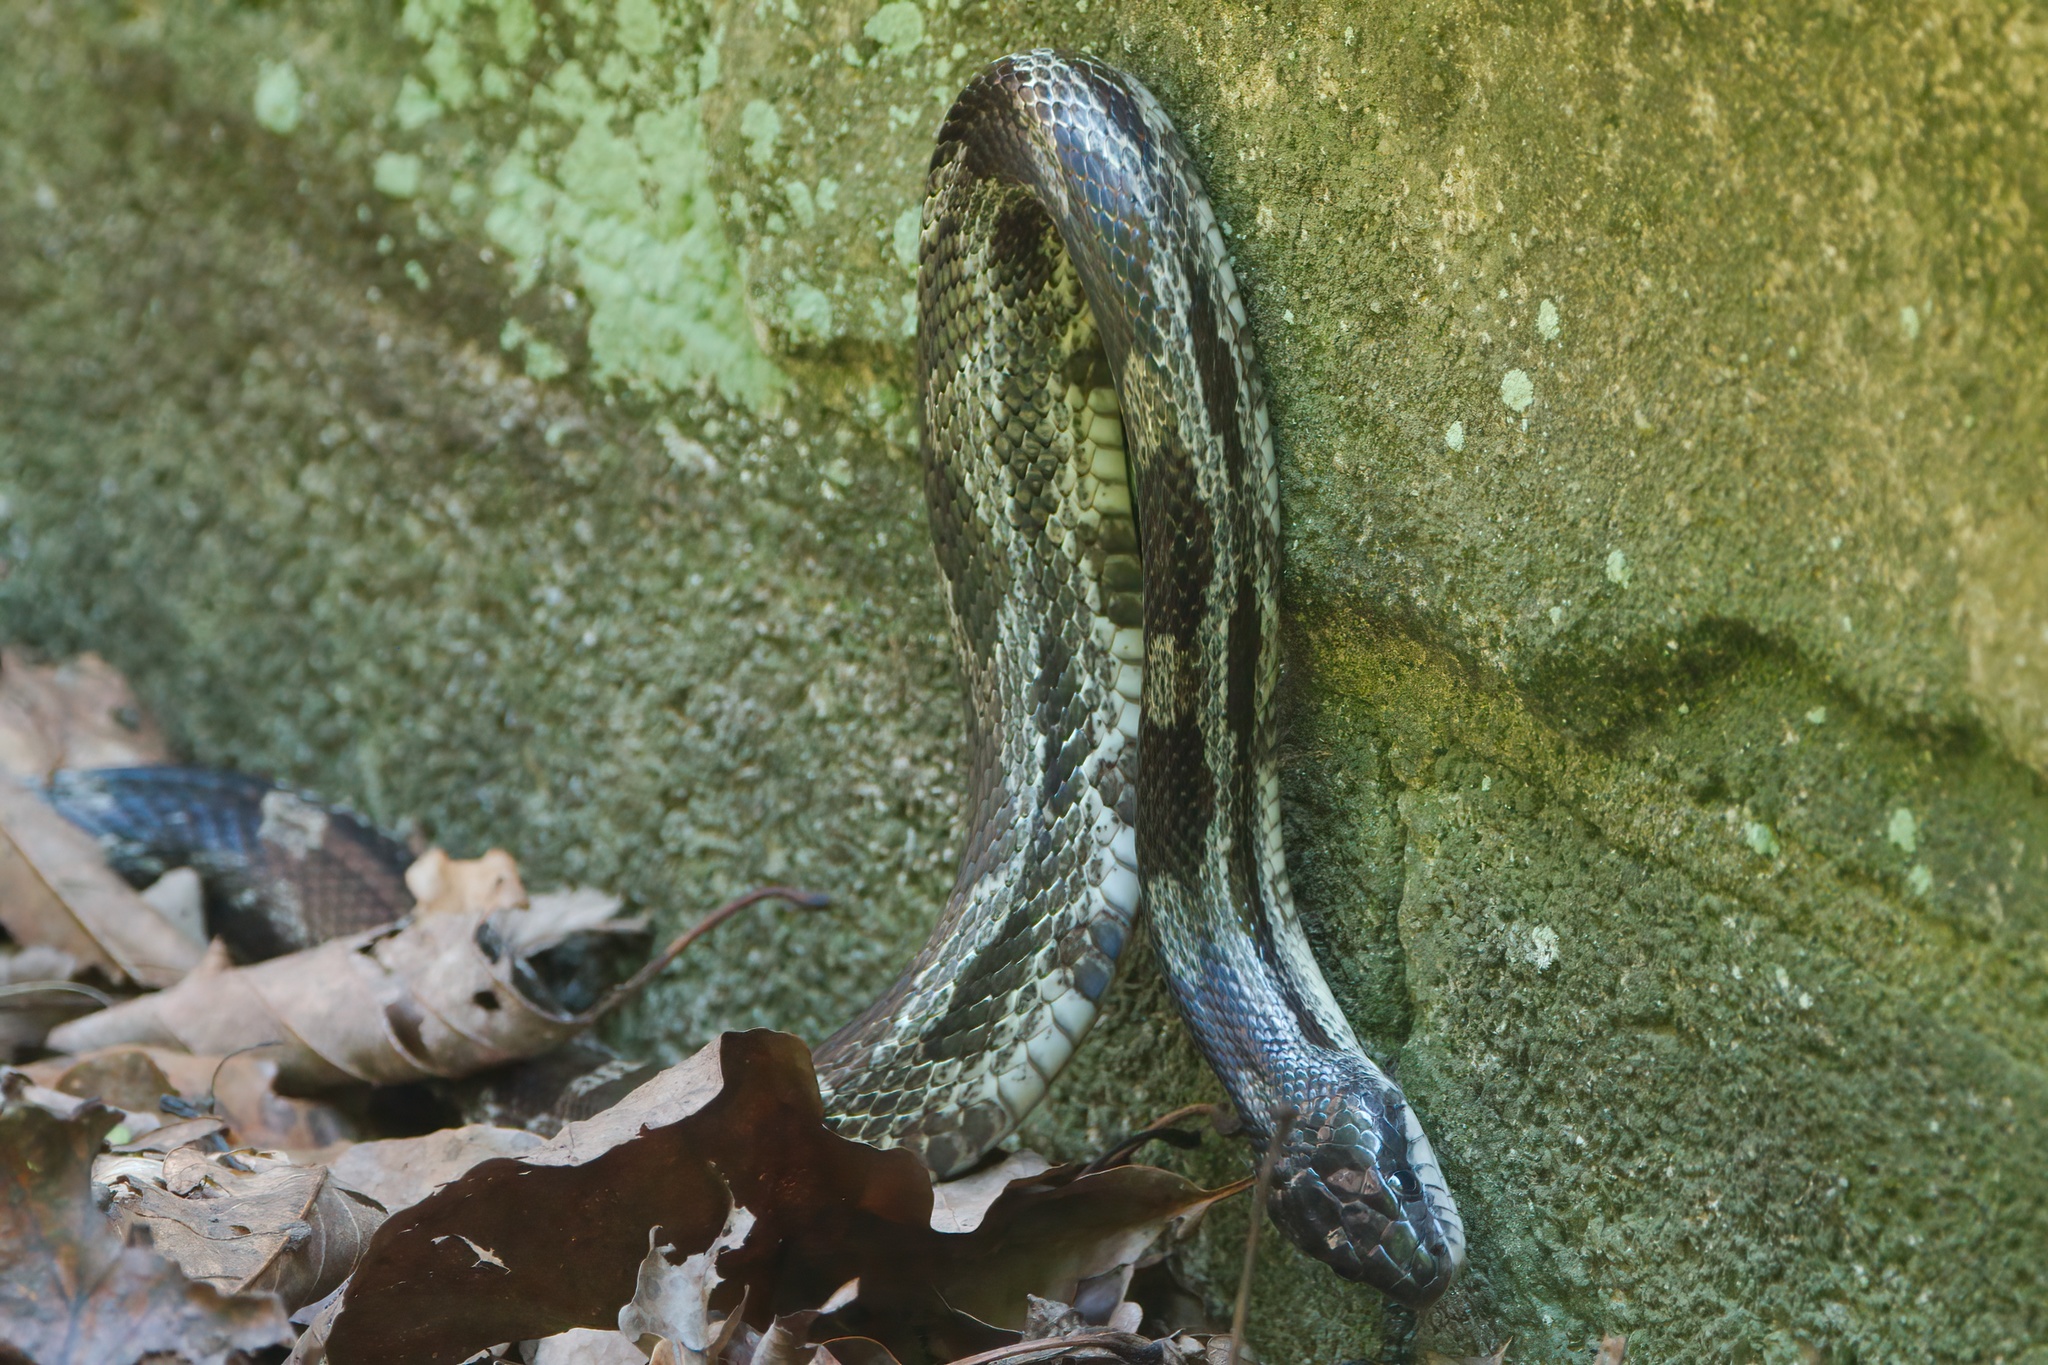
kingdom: Animalia
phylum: Chordata
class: Squamata
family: Colubridae
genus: Pantherophis
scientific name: Pantherophis spiloides
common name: Gray rat snake
